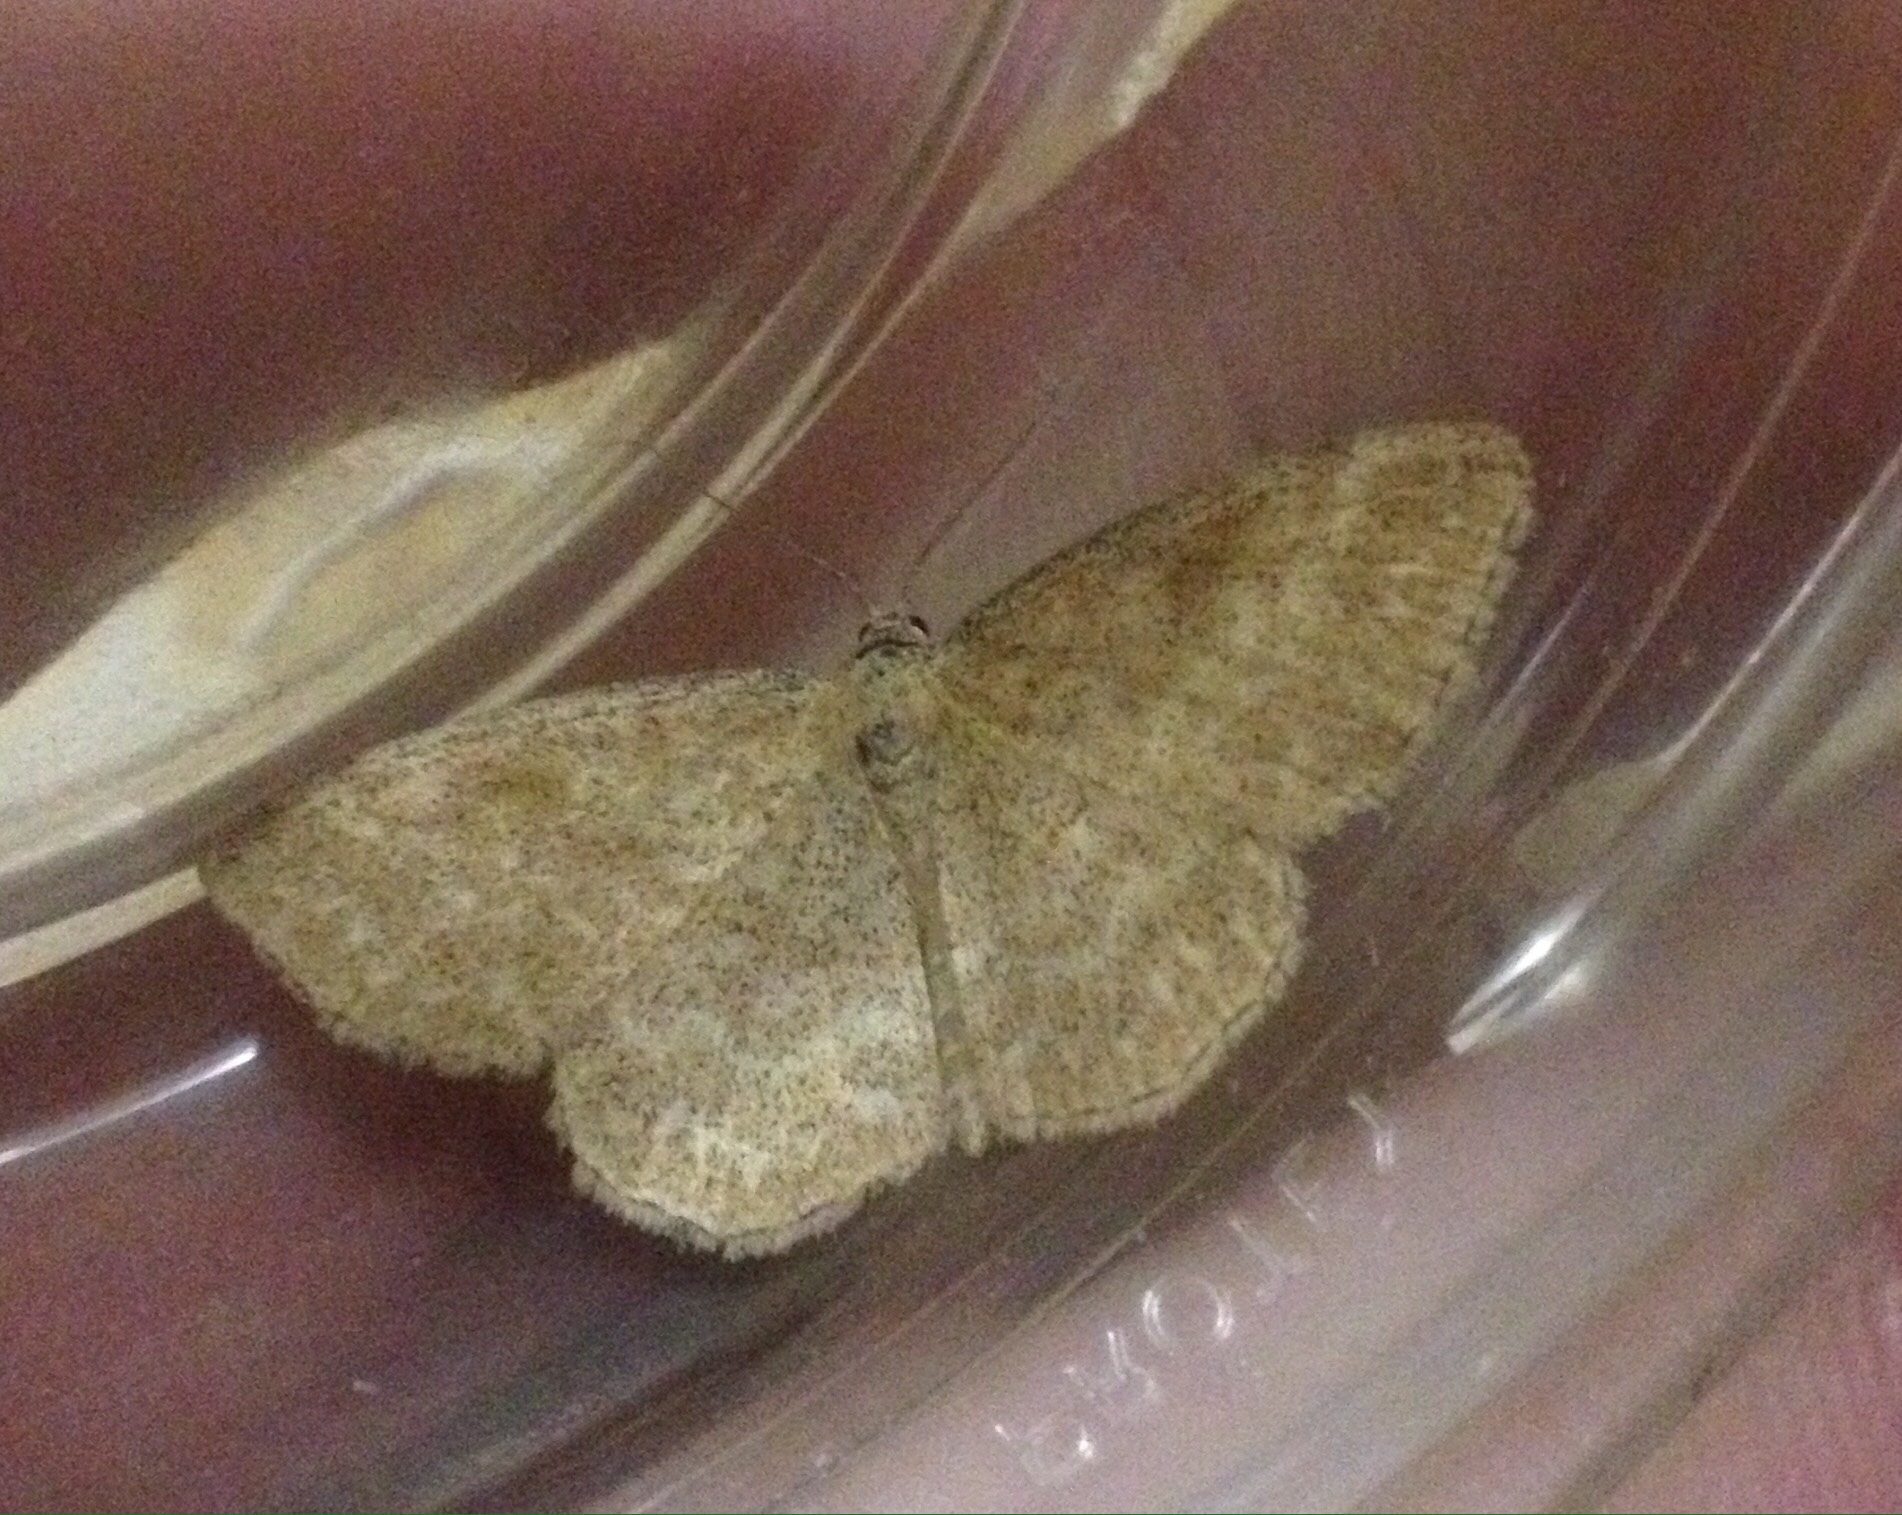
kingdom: Animalia
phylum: Arthropoda
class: Insecta
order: Lepidoptera
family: Geometridae
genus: Scopula
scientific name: Scopula immorata
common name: Lewes wave
